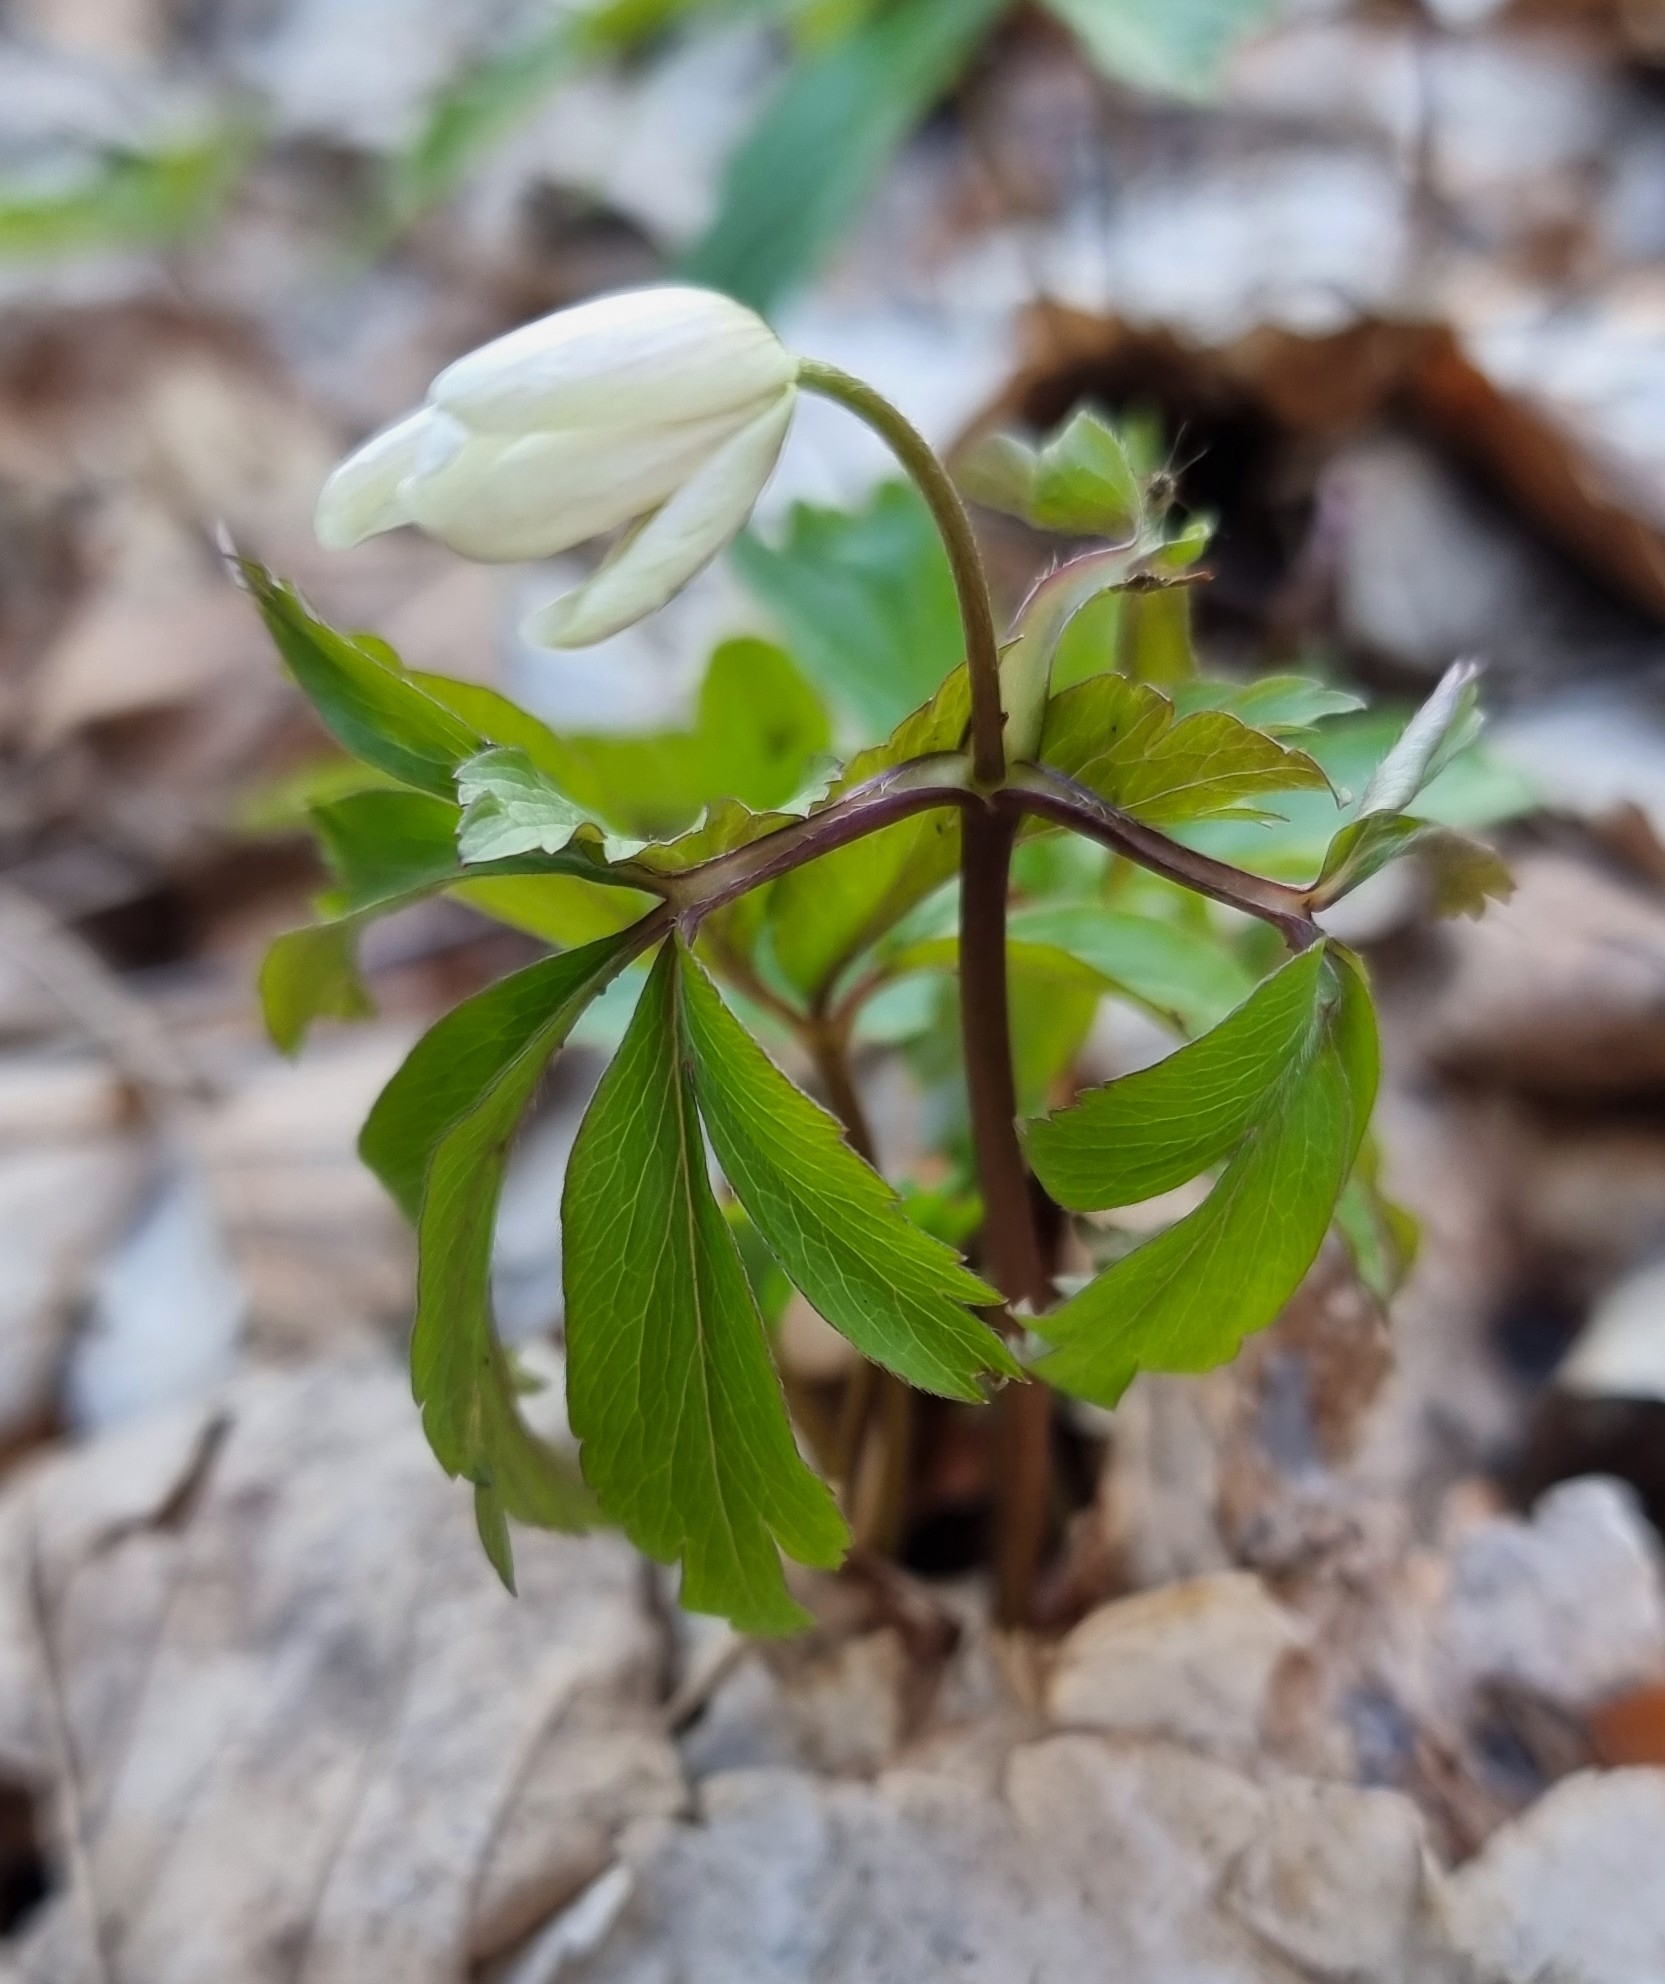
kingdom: Plantae
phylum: Tracheophyta
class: Magnoliopsida
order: Ranunculales
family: Ranunculaceae
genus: Anemone
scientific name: Anemone nemorosa
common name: Wood anemone
